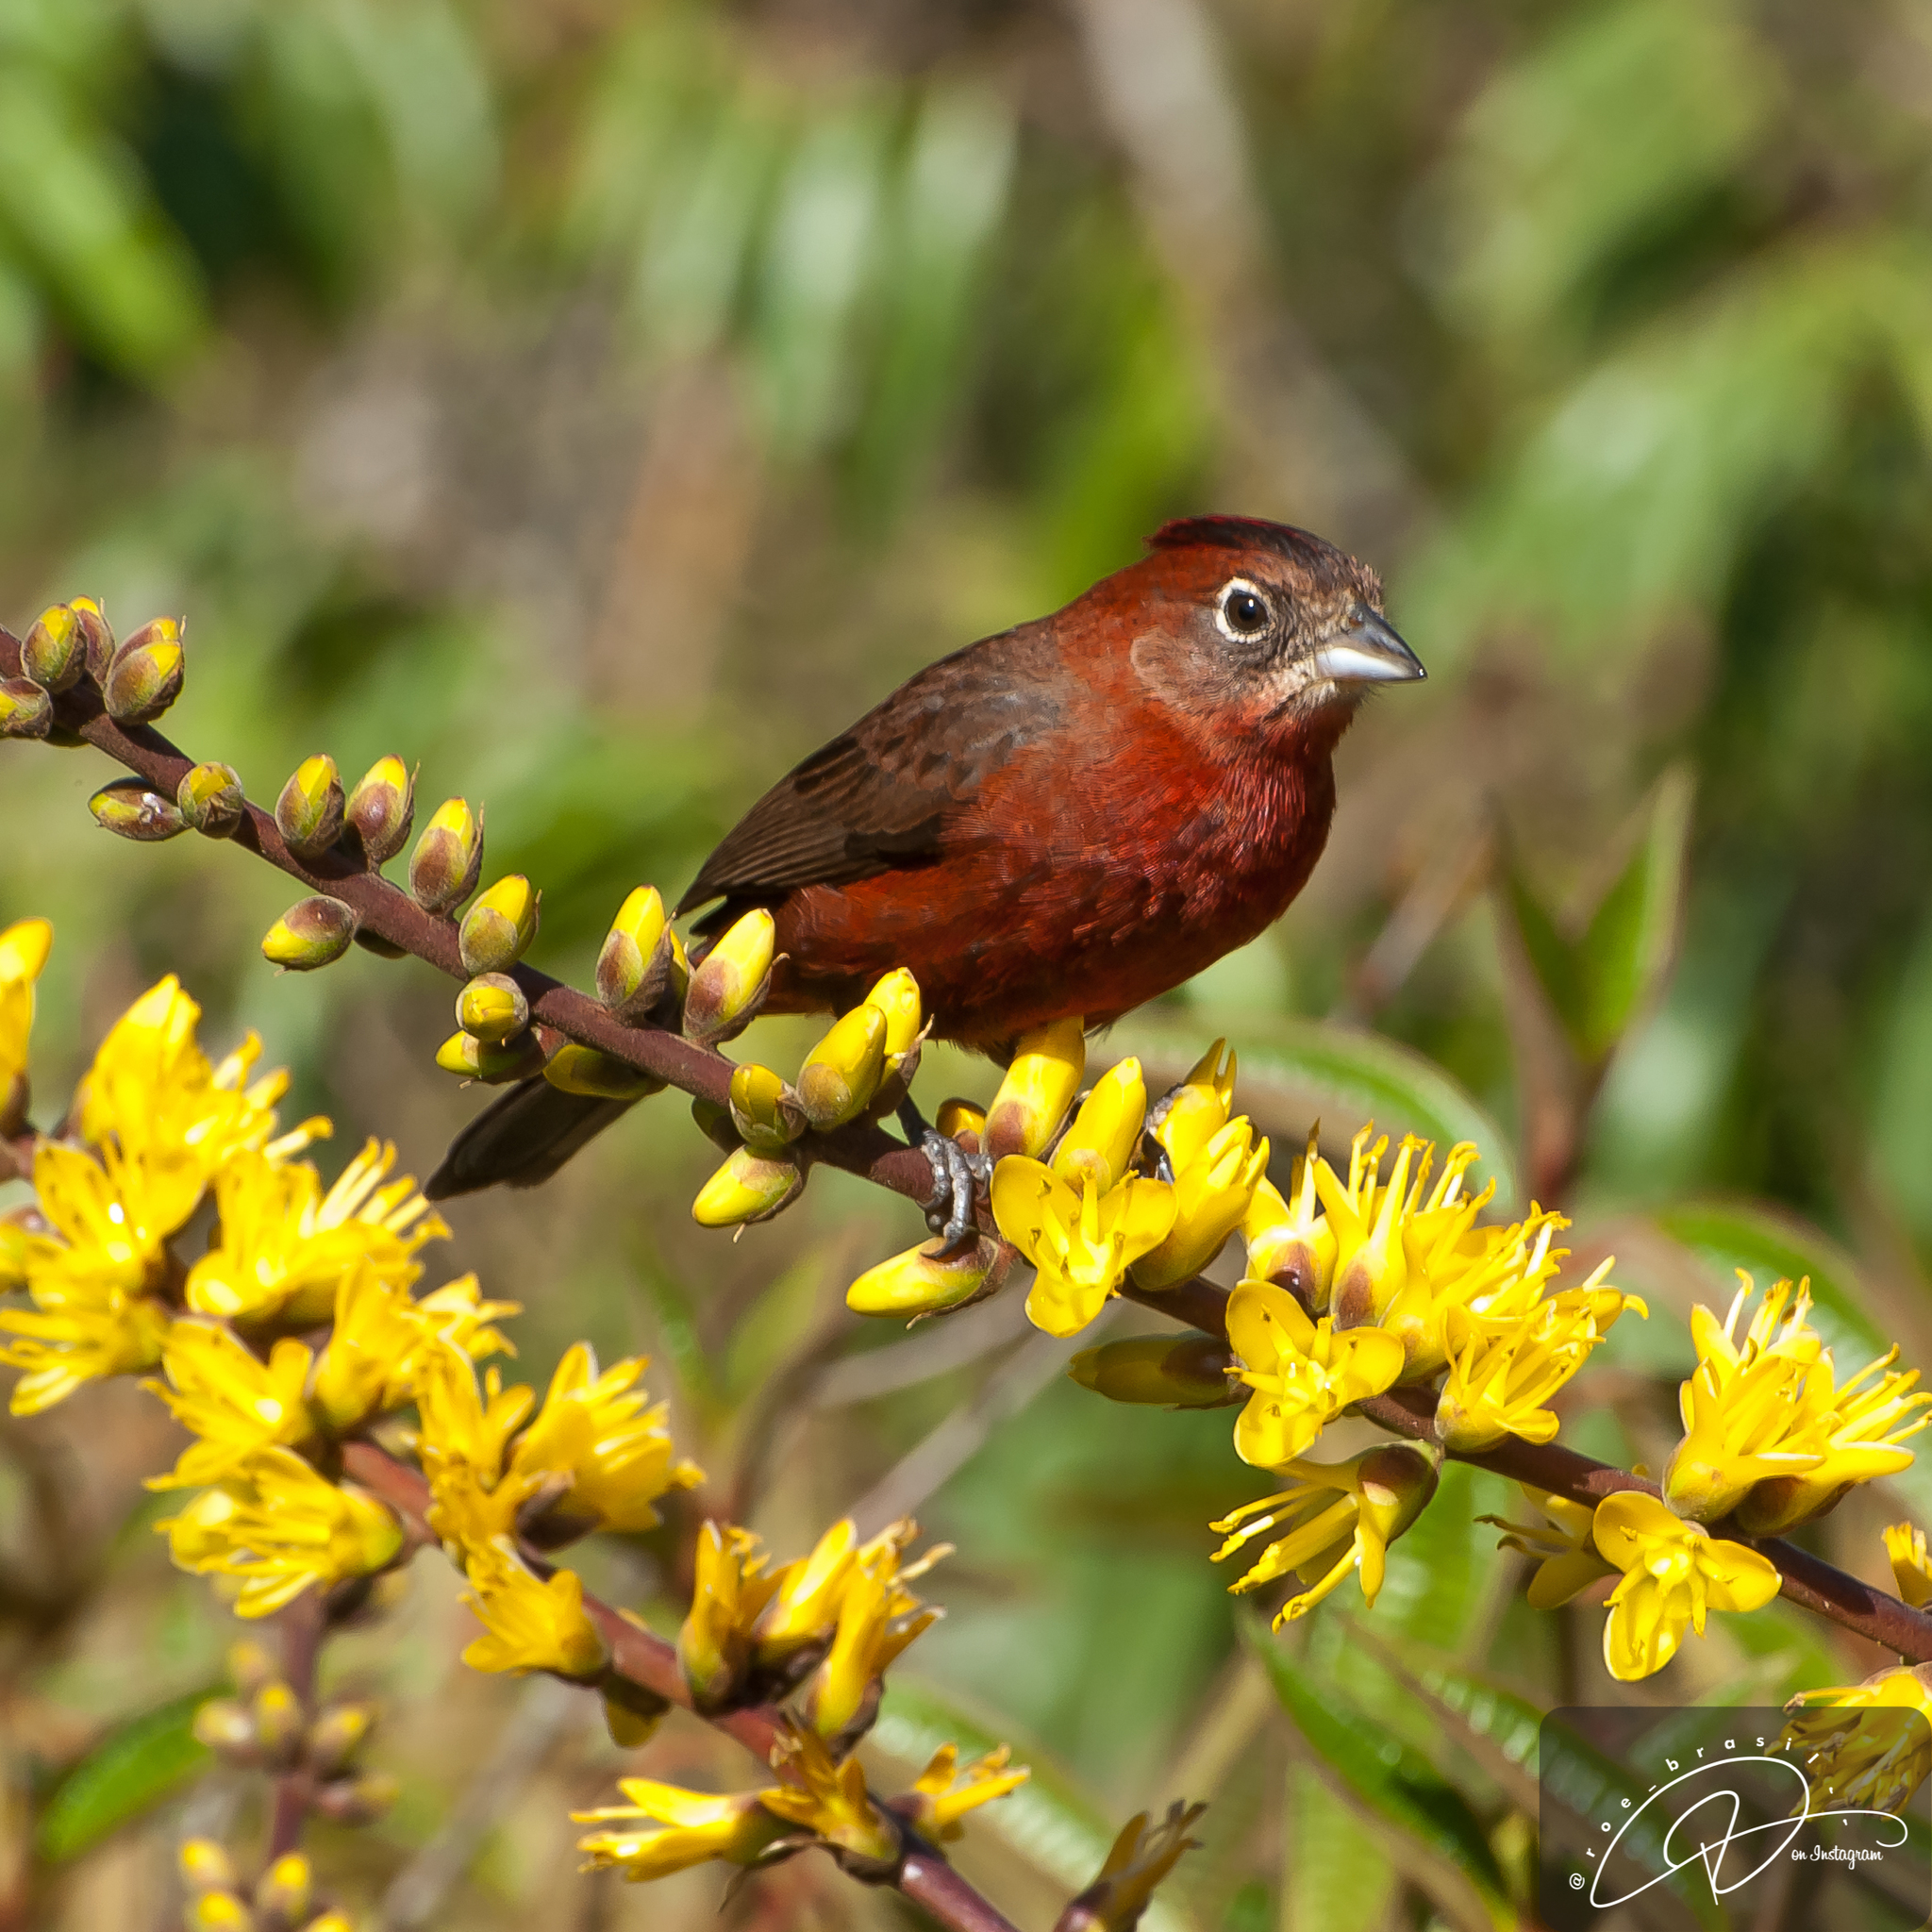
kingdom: Animalia
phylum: Chordata
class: Aves
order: Passeriformes
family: Thraupidae
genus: Coryphospingus
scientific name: Coryphospingus cucullatus
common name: Red pileated finch
